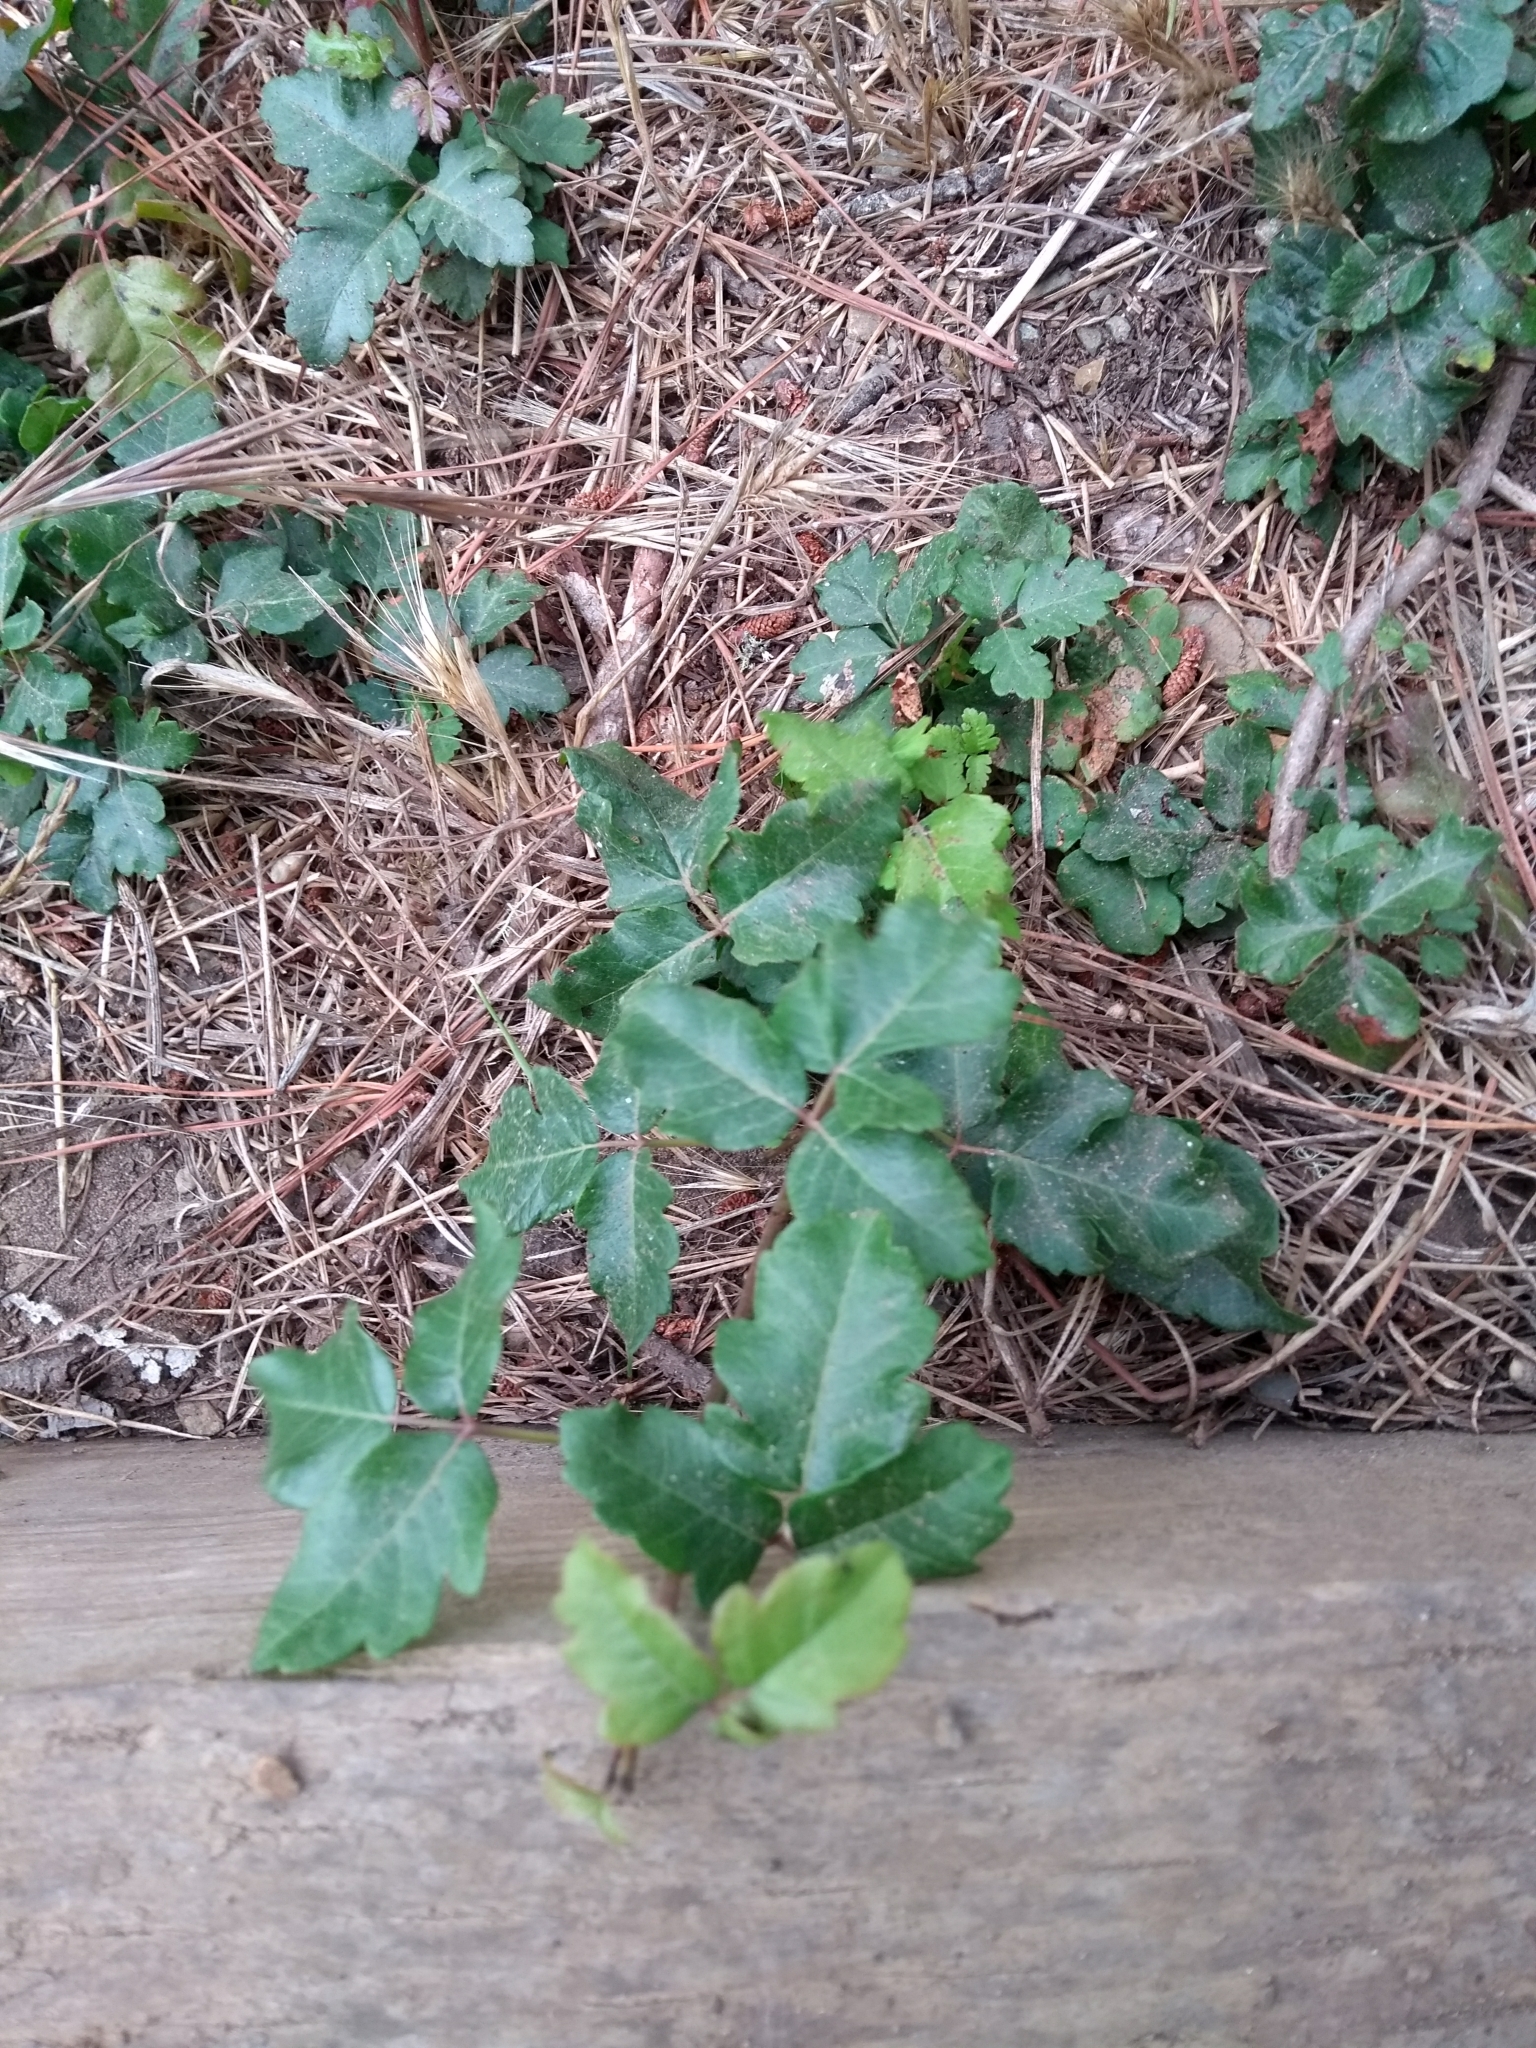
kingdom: Plantae
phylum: Tracheophyta
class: Magnoliopsida
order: Sapindales
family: Anacardiaceae
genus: Toxicodendron
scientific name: Toxicodendron diversilobum
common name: Pacific poison-oak
